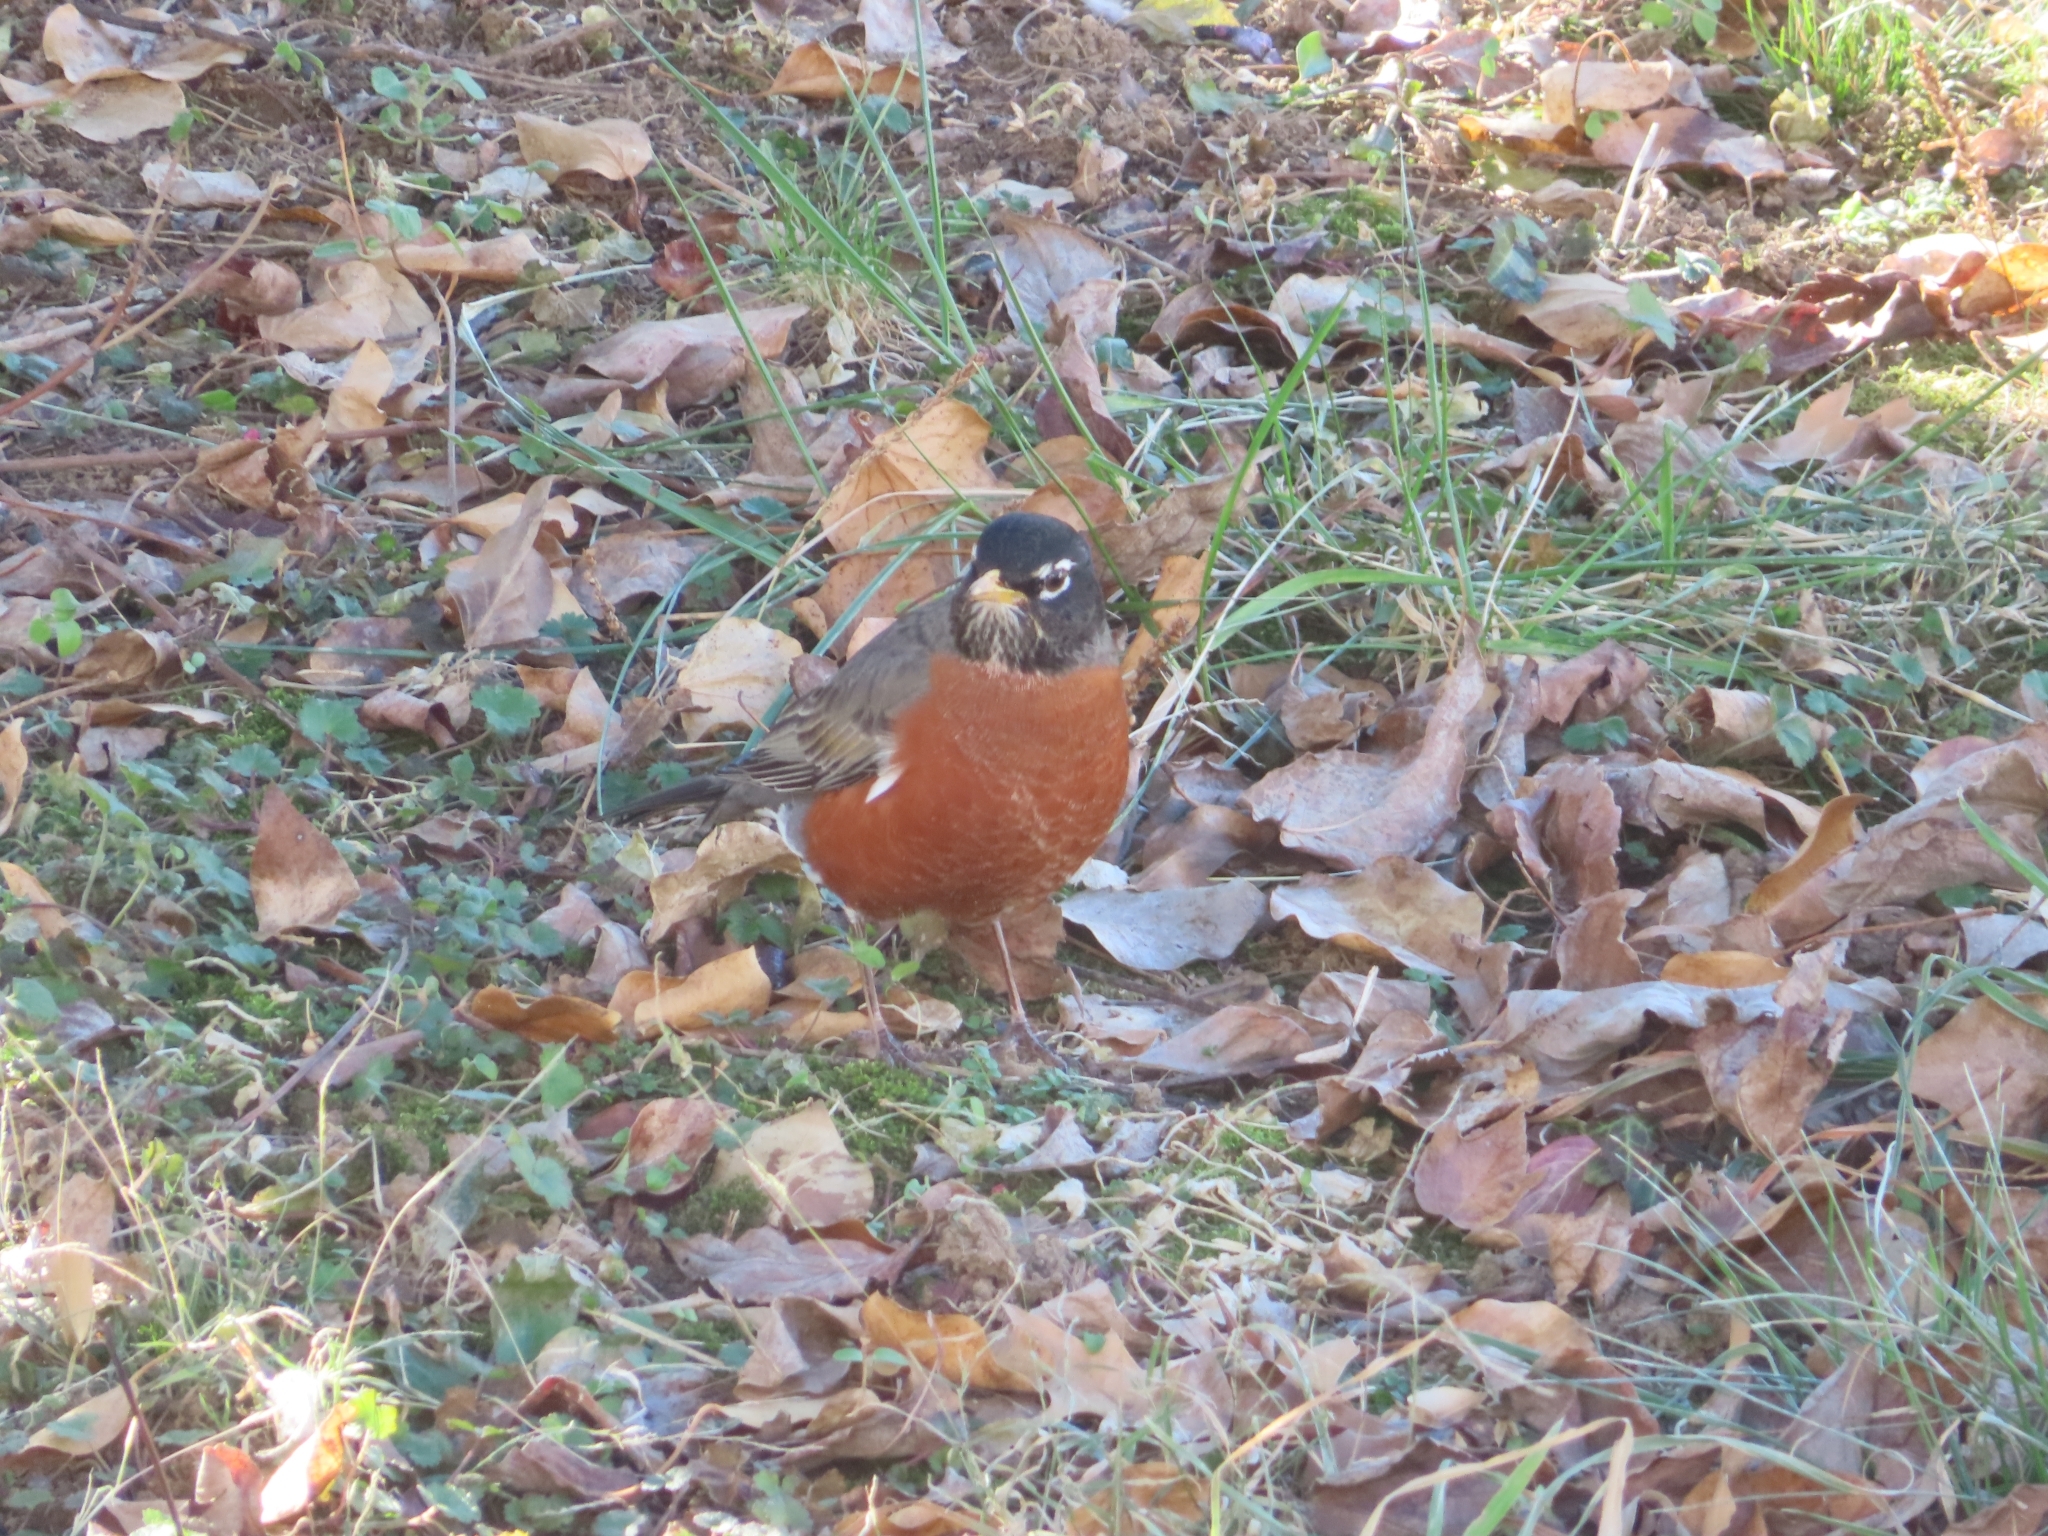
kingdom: Animalia
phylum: Chordata
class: Aves
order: Passeriformes
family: Turdidae
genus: Turdus
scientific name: Turdus migratorius
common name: American robin
